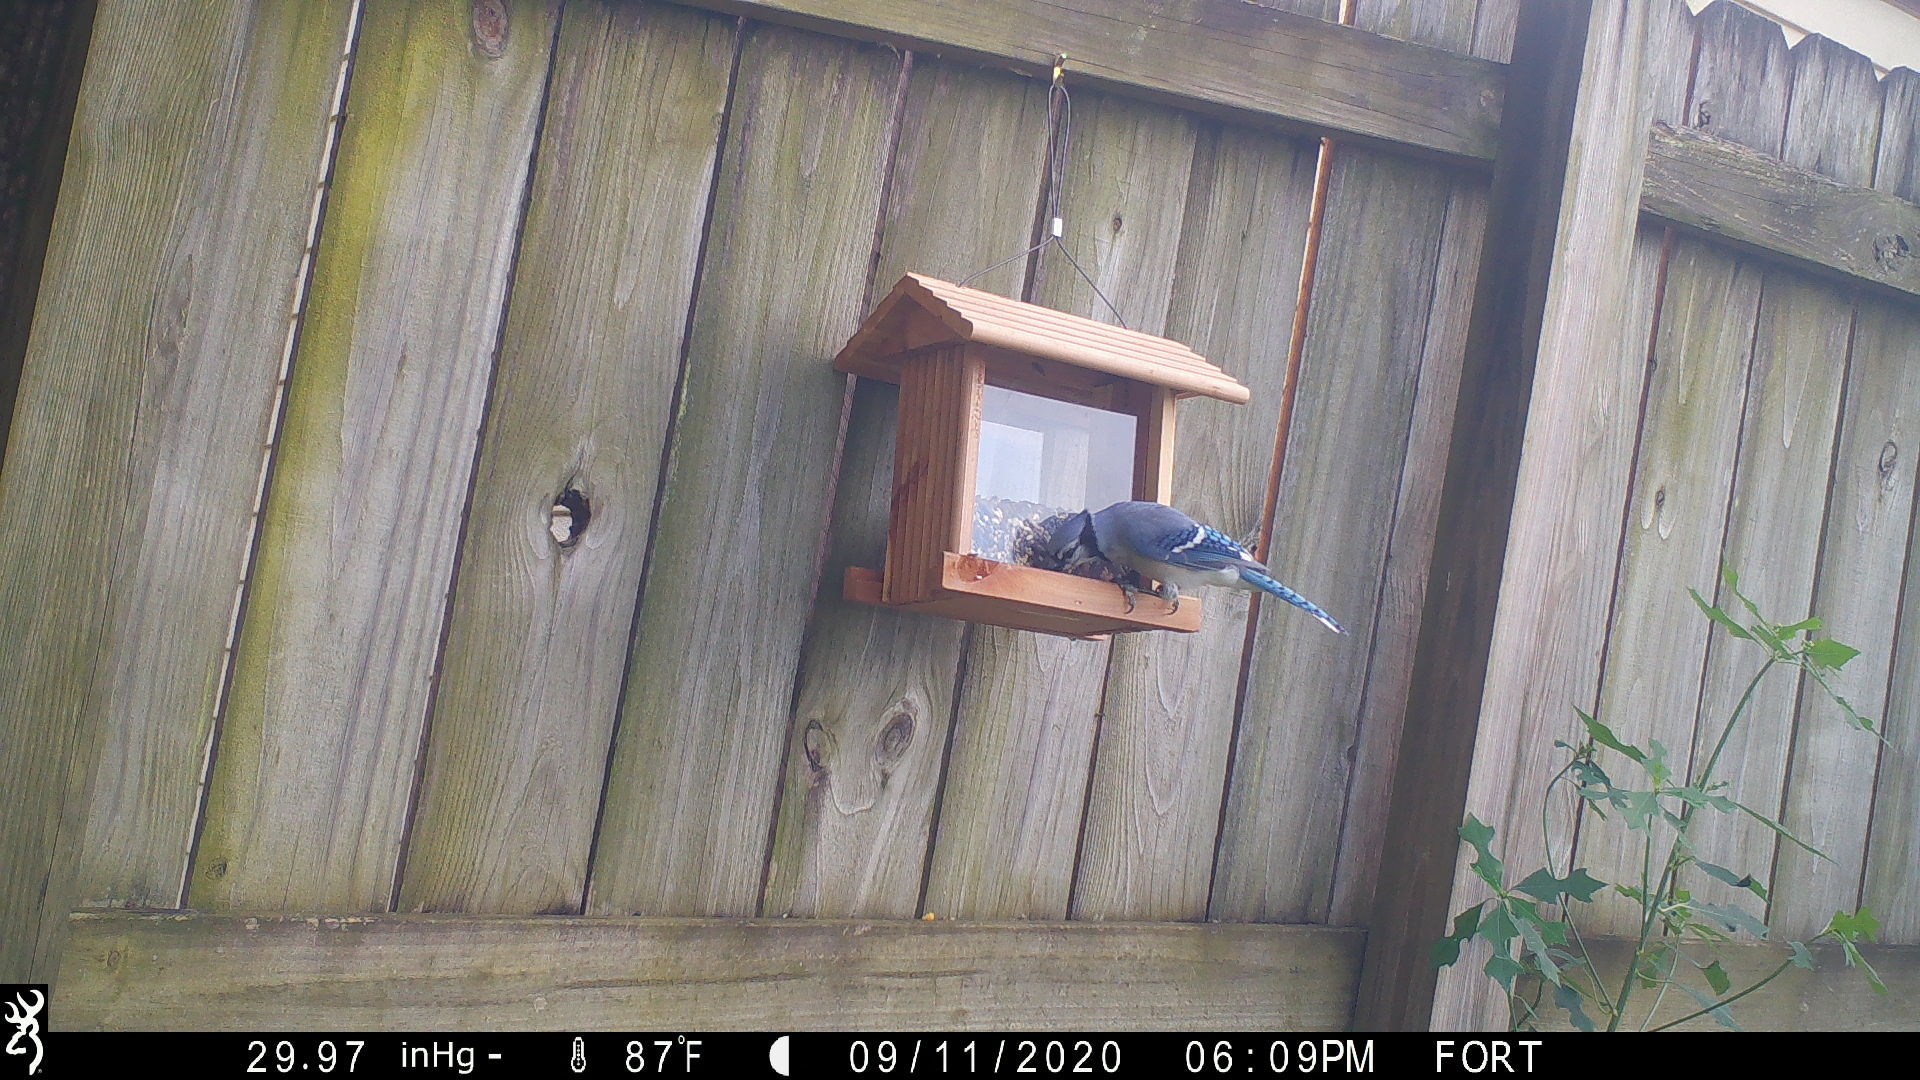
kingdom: Animalia
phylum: Chordata
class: Aves
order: Passeriformes
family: Corvidae
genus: Cyanocitta
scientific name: Cyanocitta cristata
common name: Blue jay
